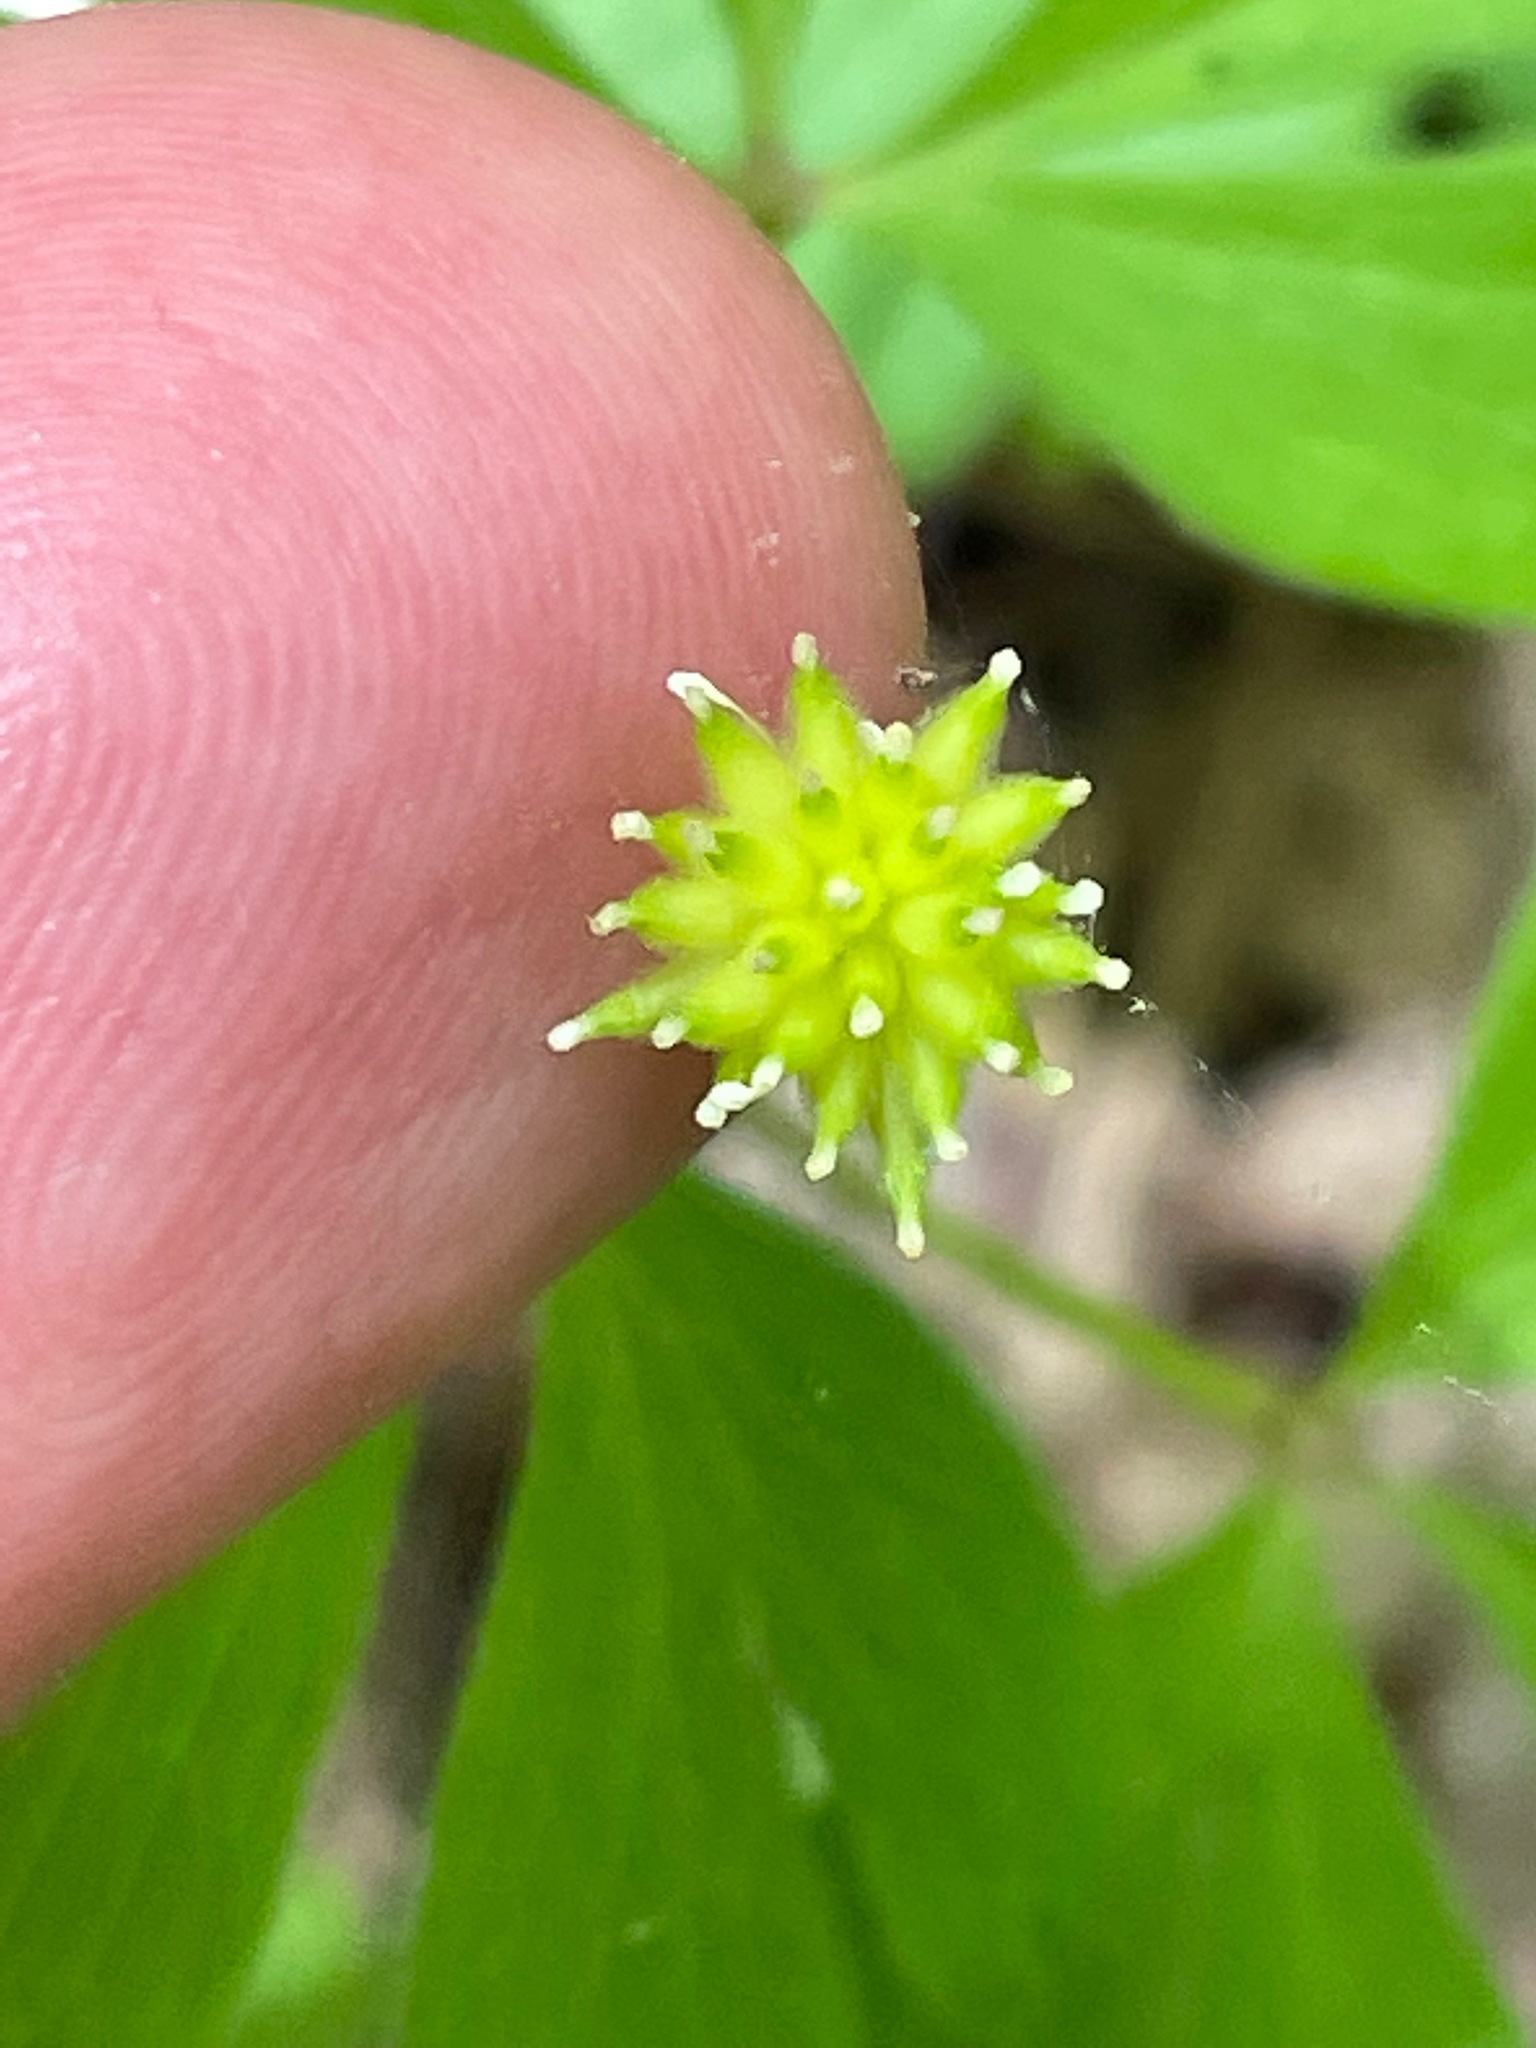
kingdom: Plantae
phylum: Tracheophyta
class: Magnoliopsida
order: Ranunculales
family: Ranunculaceae
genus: Anemone
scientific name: Anemone quinquefolia
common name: Wood anemone
